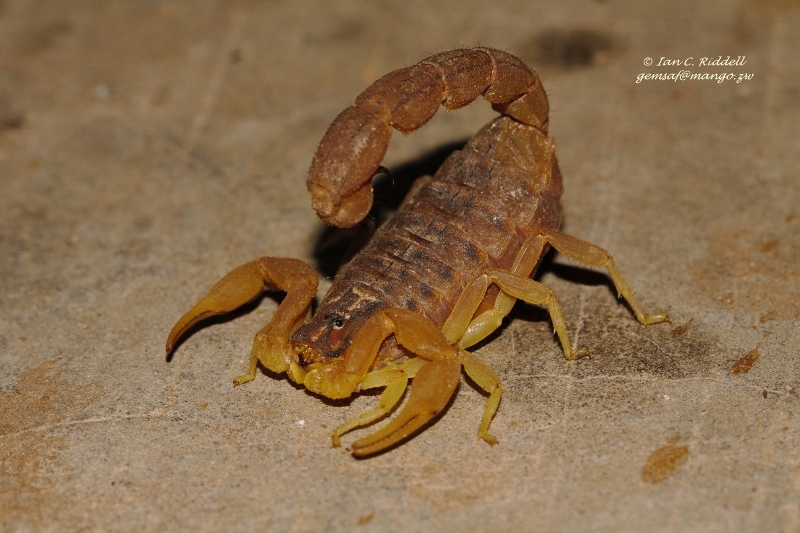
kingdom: Animalia
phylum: Arthropoda
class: Arachnida
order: Scorpiones
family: Buthidae
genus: Hottentotta
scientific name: Hottentotta trilineatus
